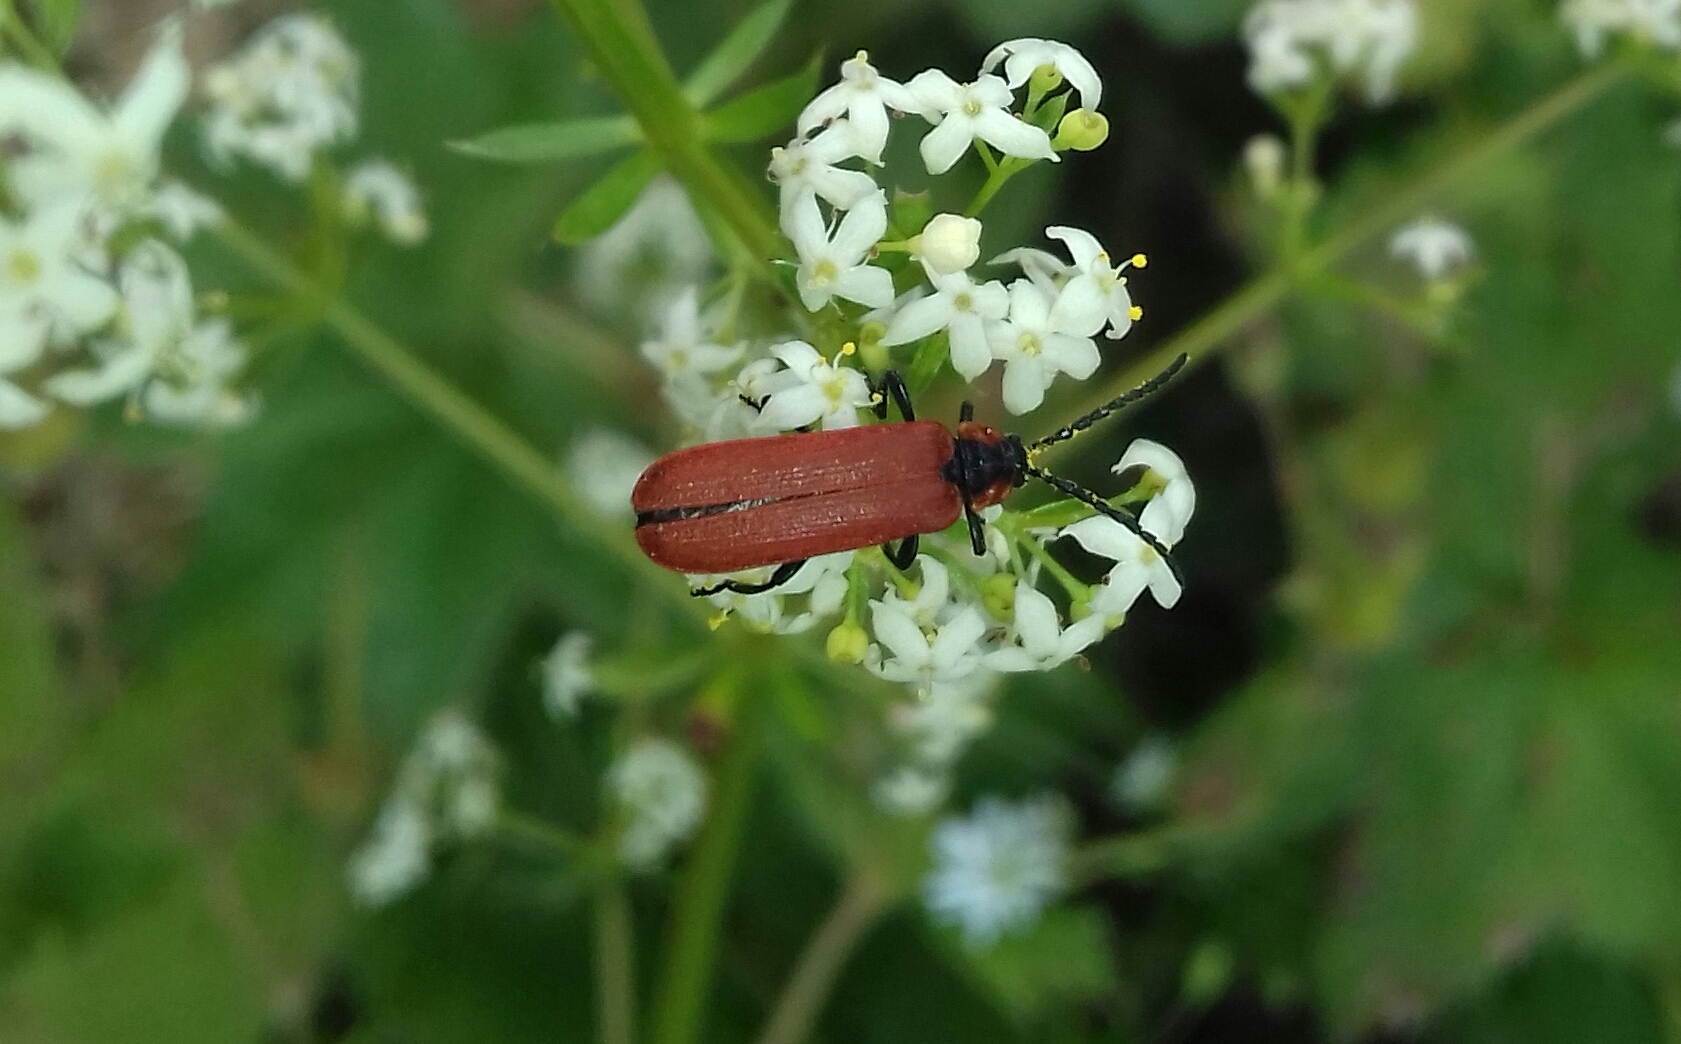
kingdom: Animalia
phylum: Arthropoda
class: Insecta
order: Coleoptera
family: Lycidae
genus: Lygistopterus
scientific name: Lygistopterus sanguineus
